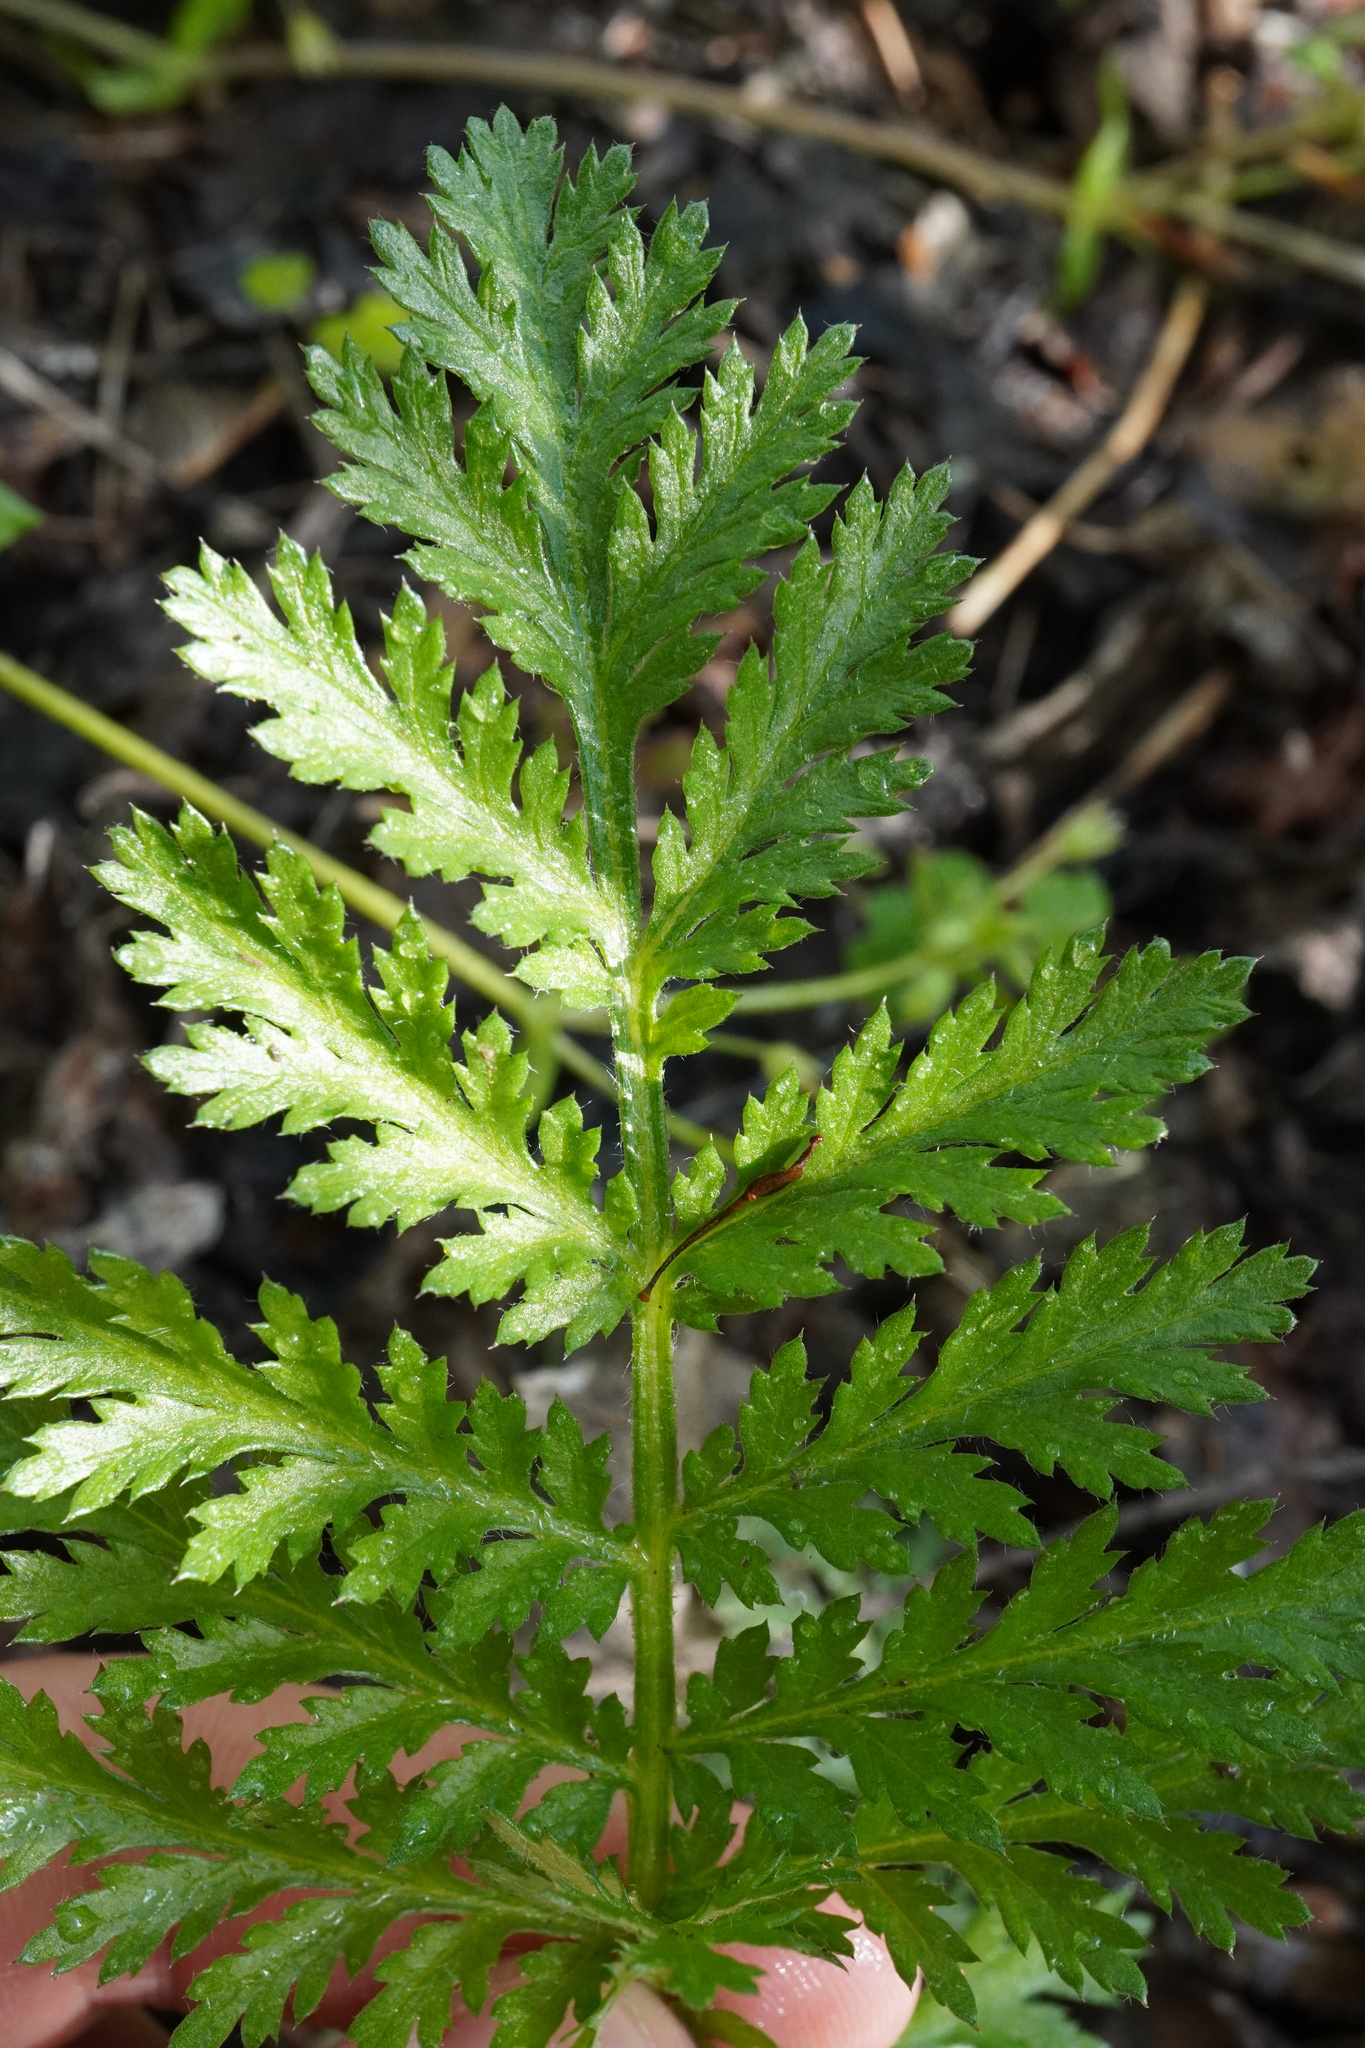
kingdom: Plantae
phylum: Tracheophyta
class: Magnoliopsida
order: Asterales
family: Asteraceae
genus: Tanacetum
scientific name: Tanacetum corymbosum
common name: Scentless feverfew
